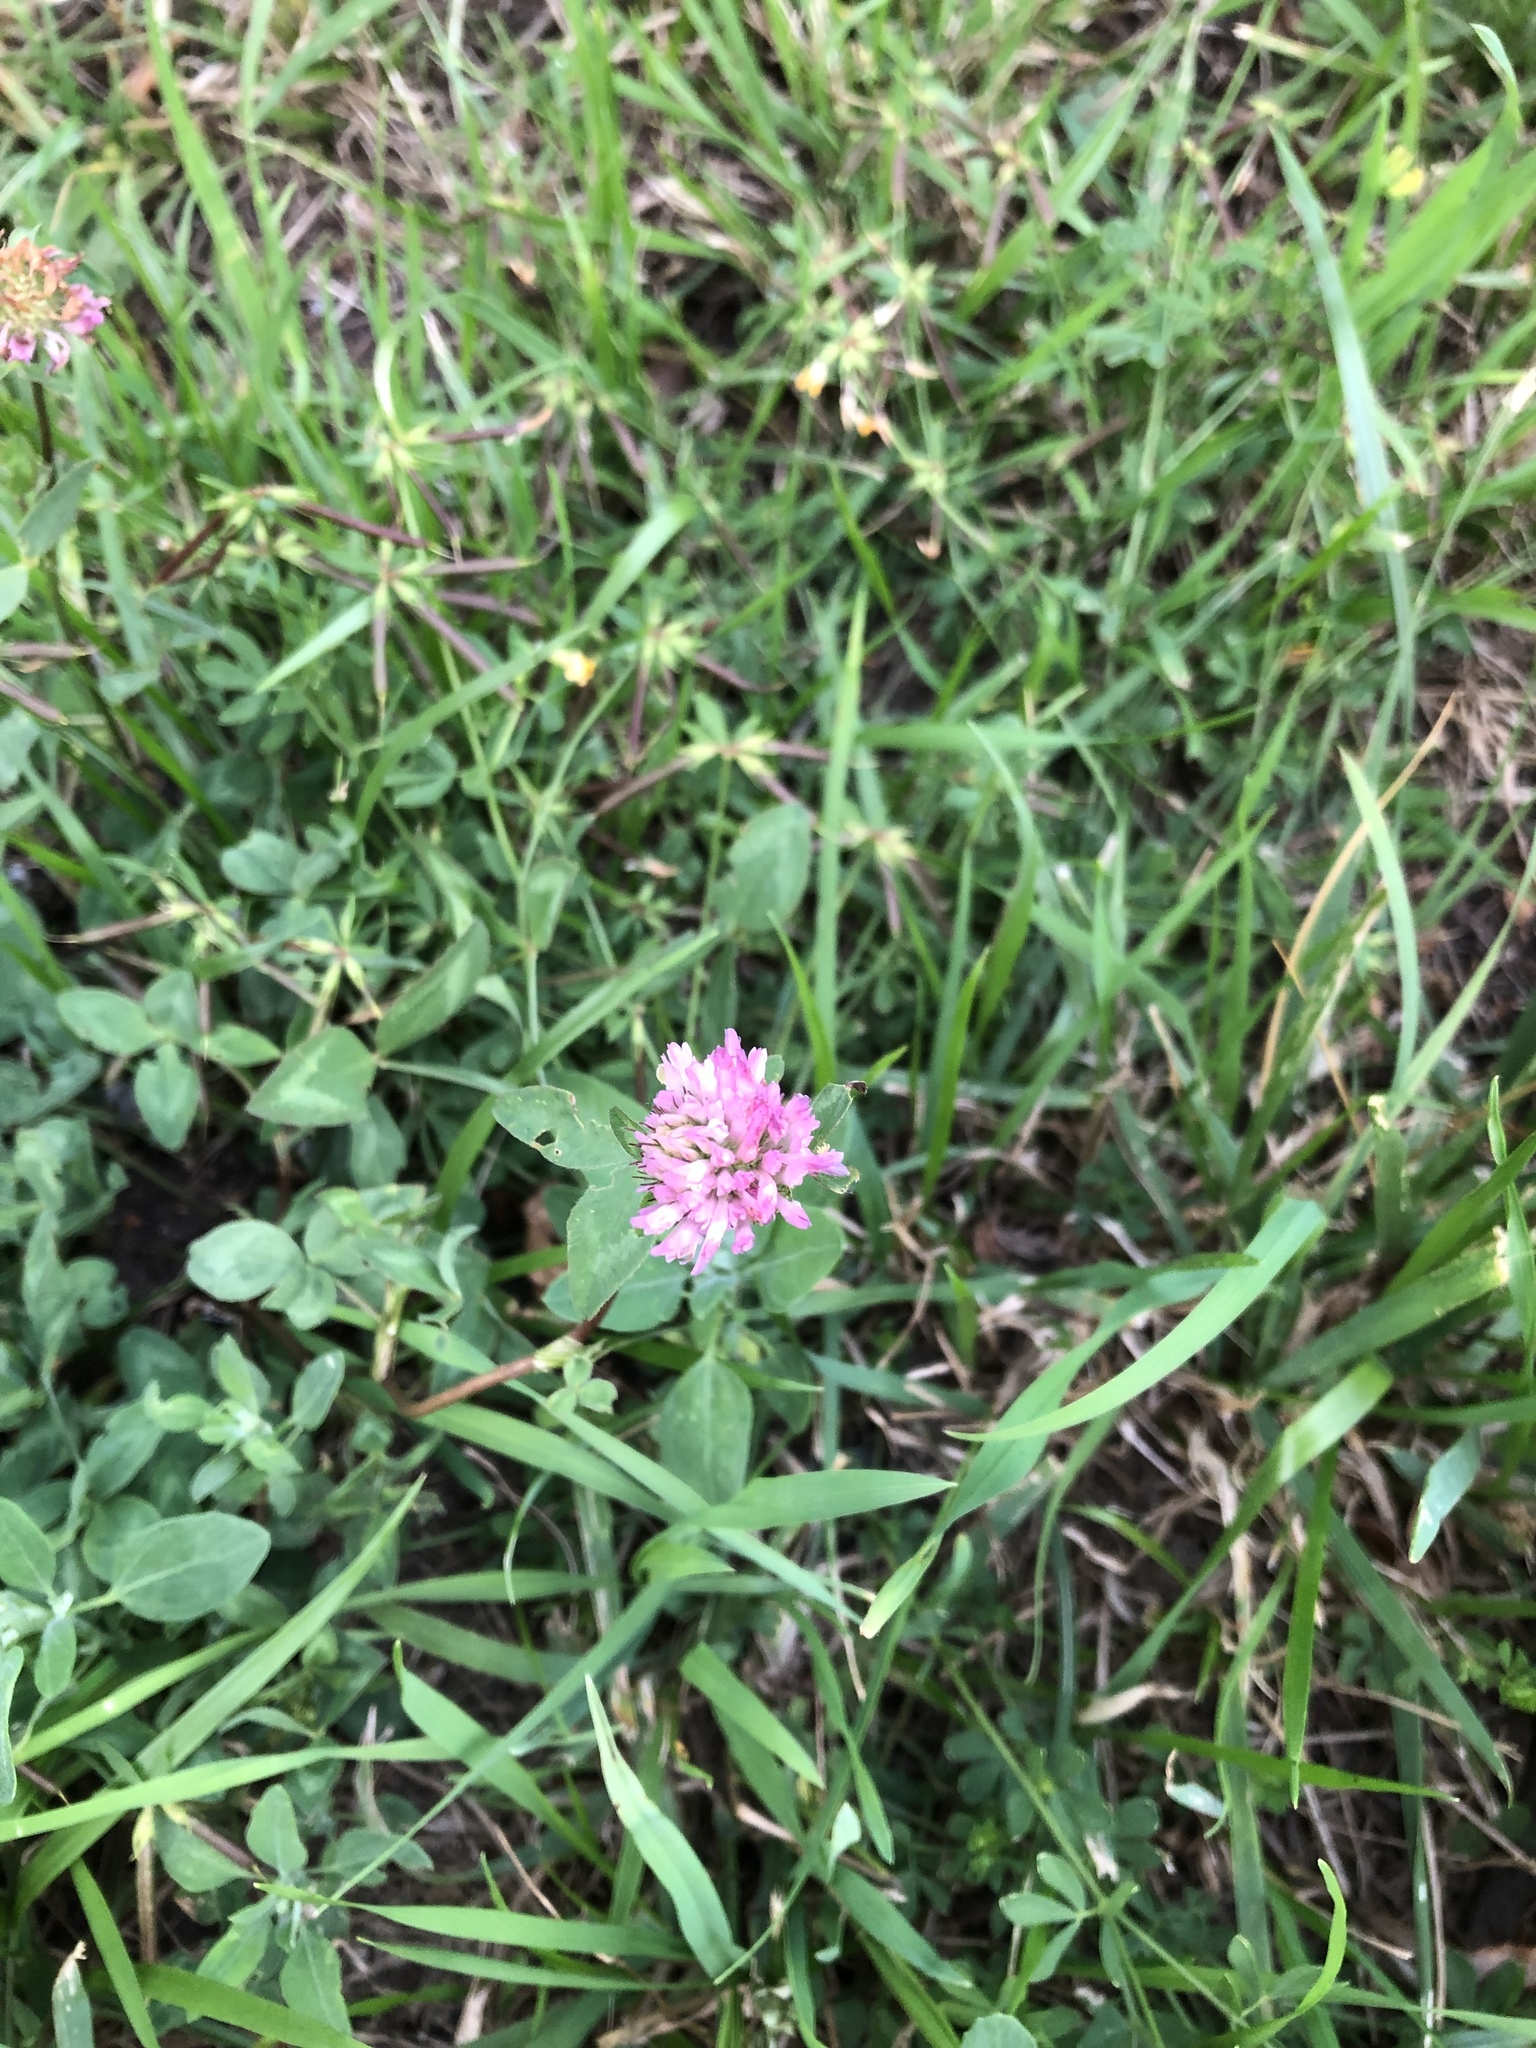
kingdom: Plantae
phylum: Tracheophyta
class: Magnoliopsida
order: Fabales
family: Fabaceae
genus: Trifolium
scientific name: Trifolium pratense
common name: Red clover
